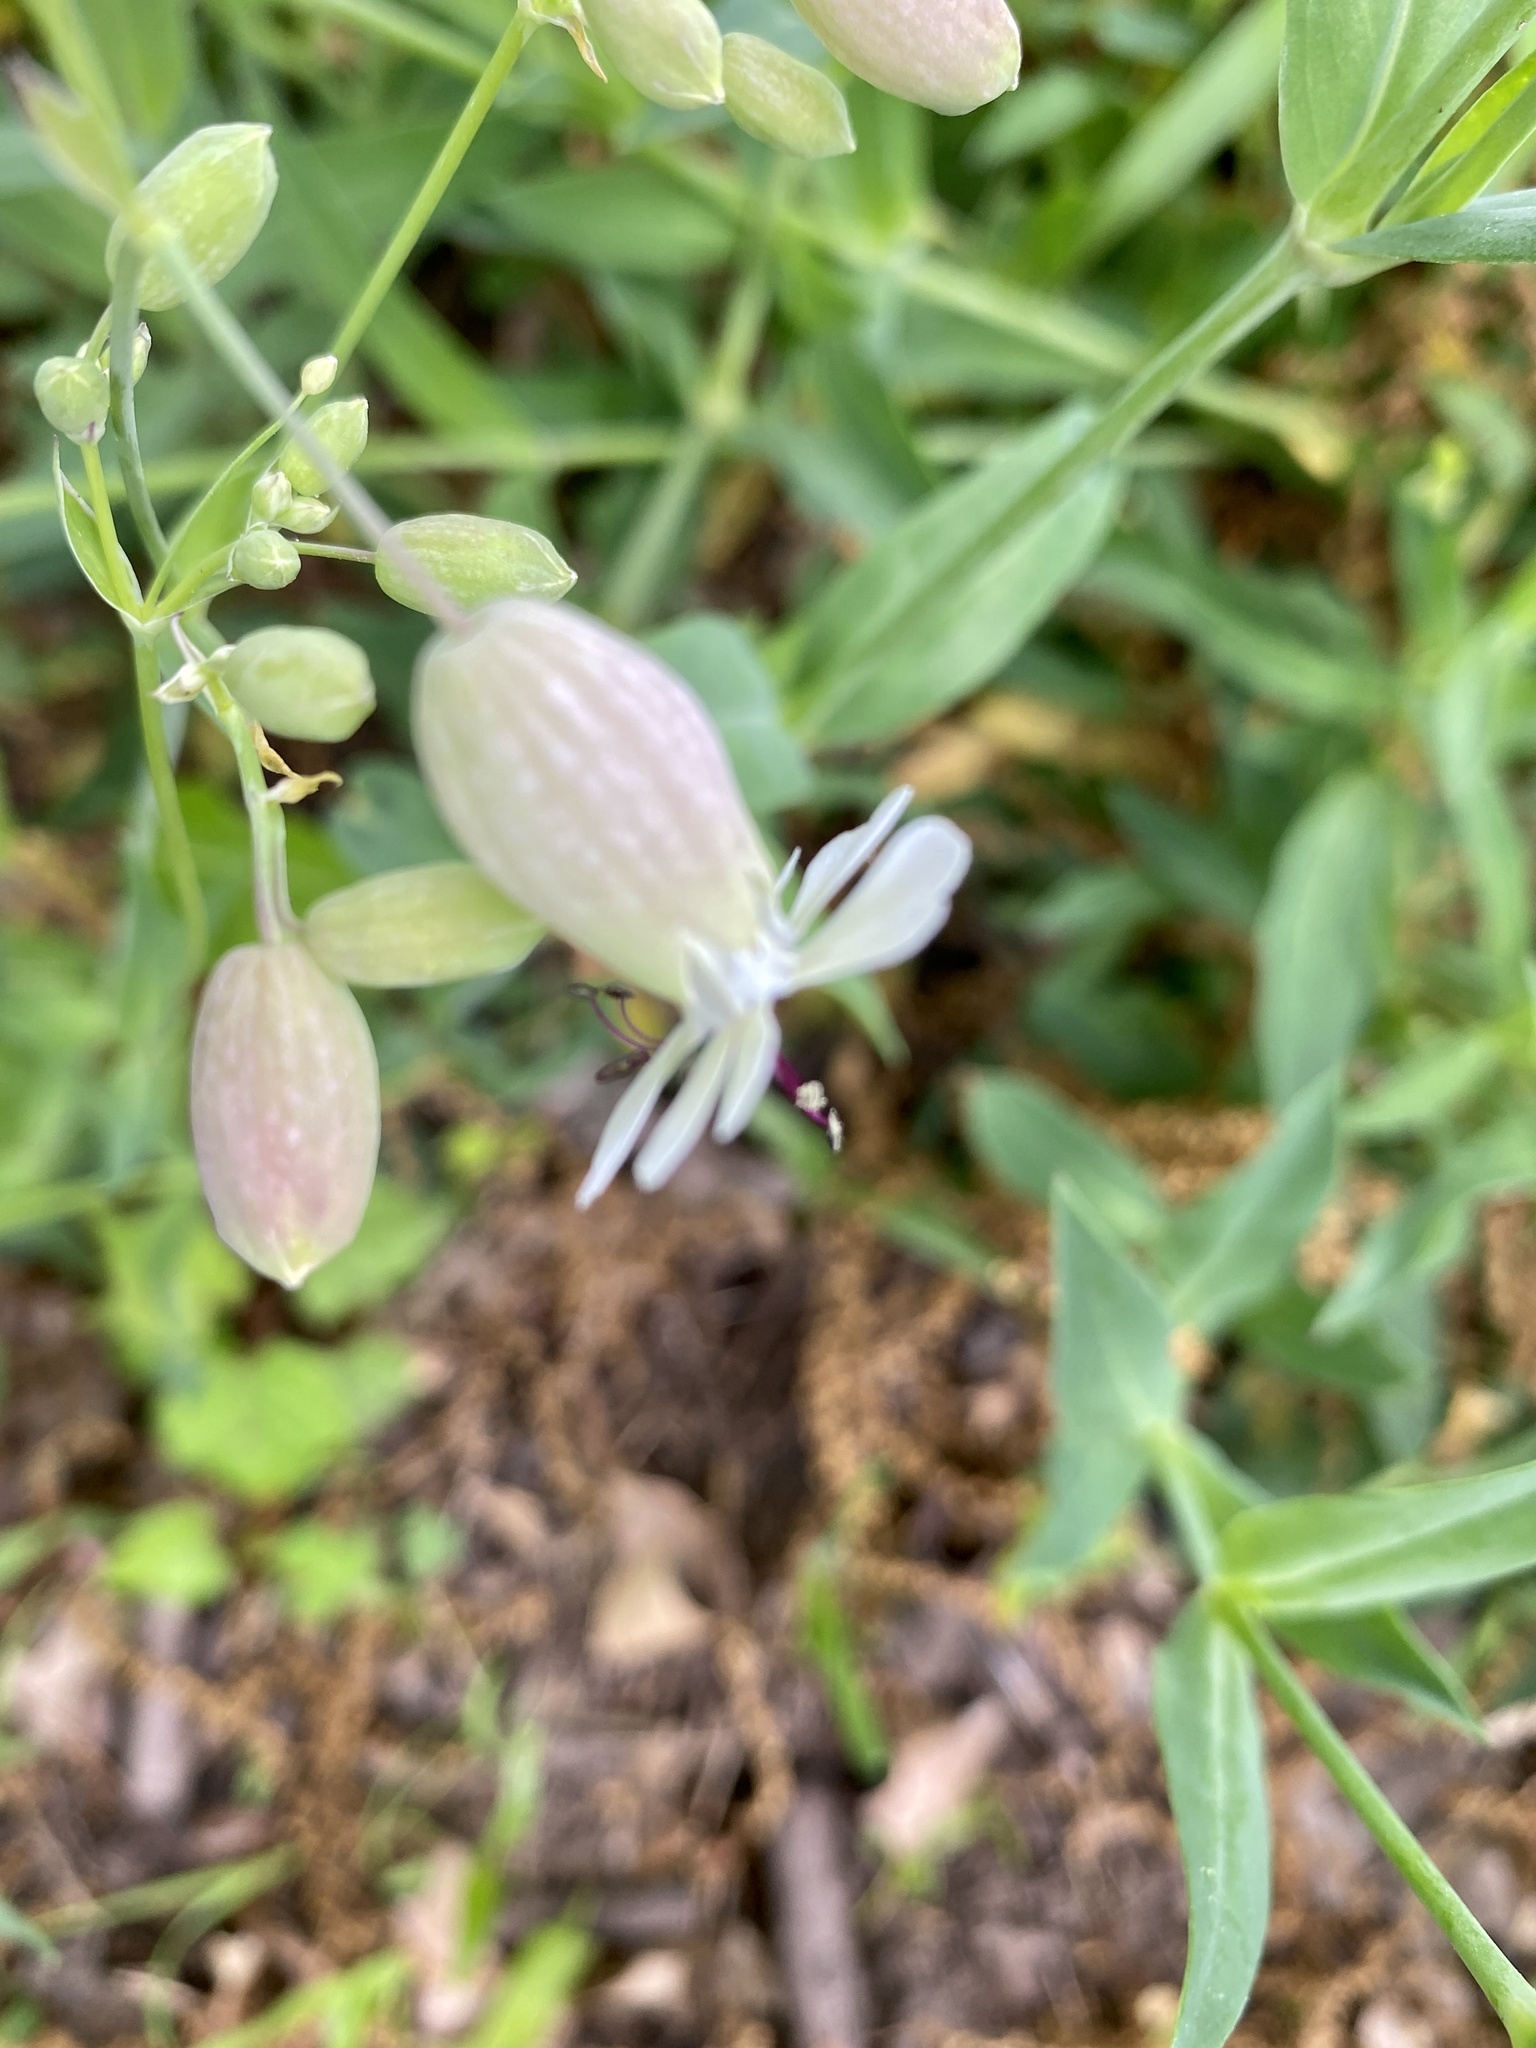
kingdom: Plantae
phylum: Tracheophyta
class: Magnoliopsida
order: Caryophyllales
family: Caryophyllaceae
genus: Silene
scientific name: Silene vulgaris
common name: Bladder campion
